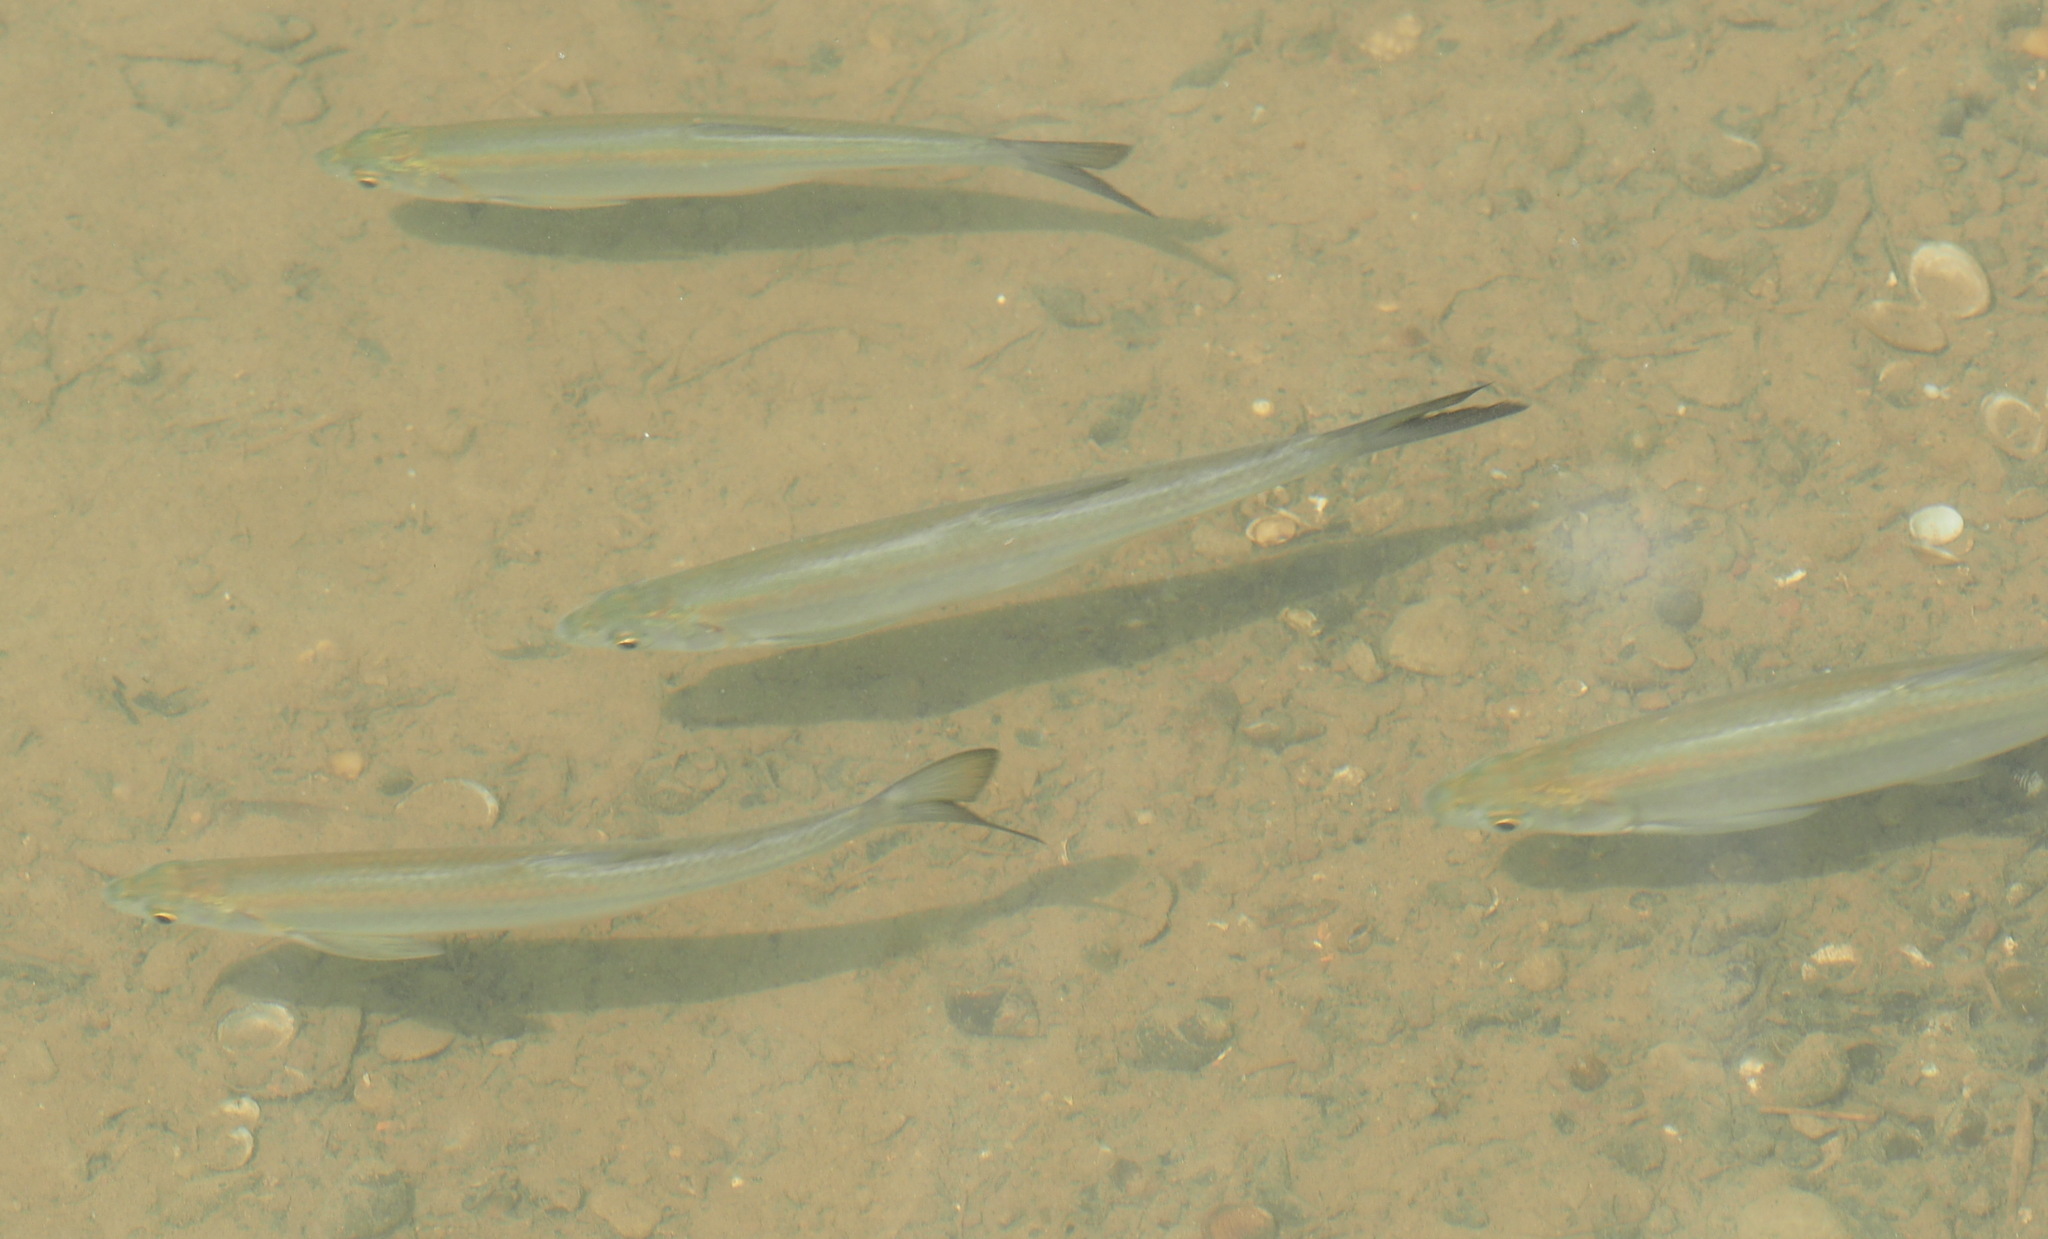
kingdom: Animalia
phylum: Chordata
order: Cypriniformes
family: Cyprinidae
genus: Hemiculter
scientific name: Hemiculter leucisculus
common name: Common sawbelly
